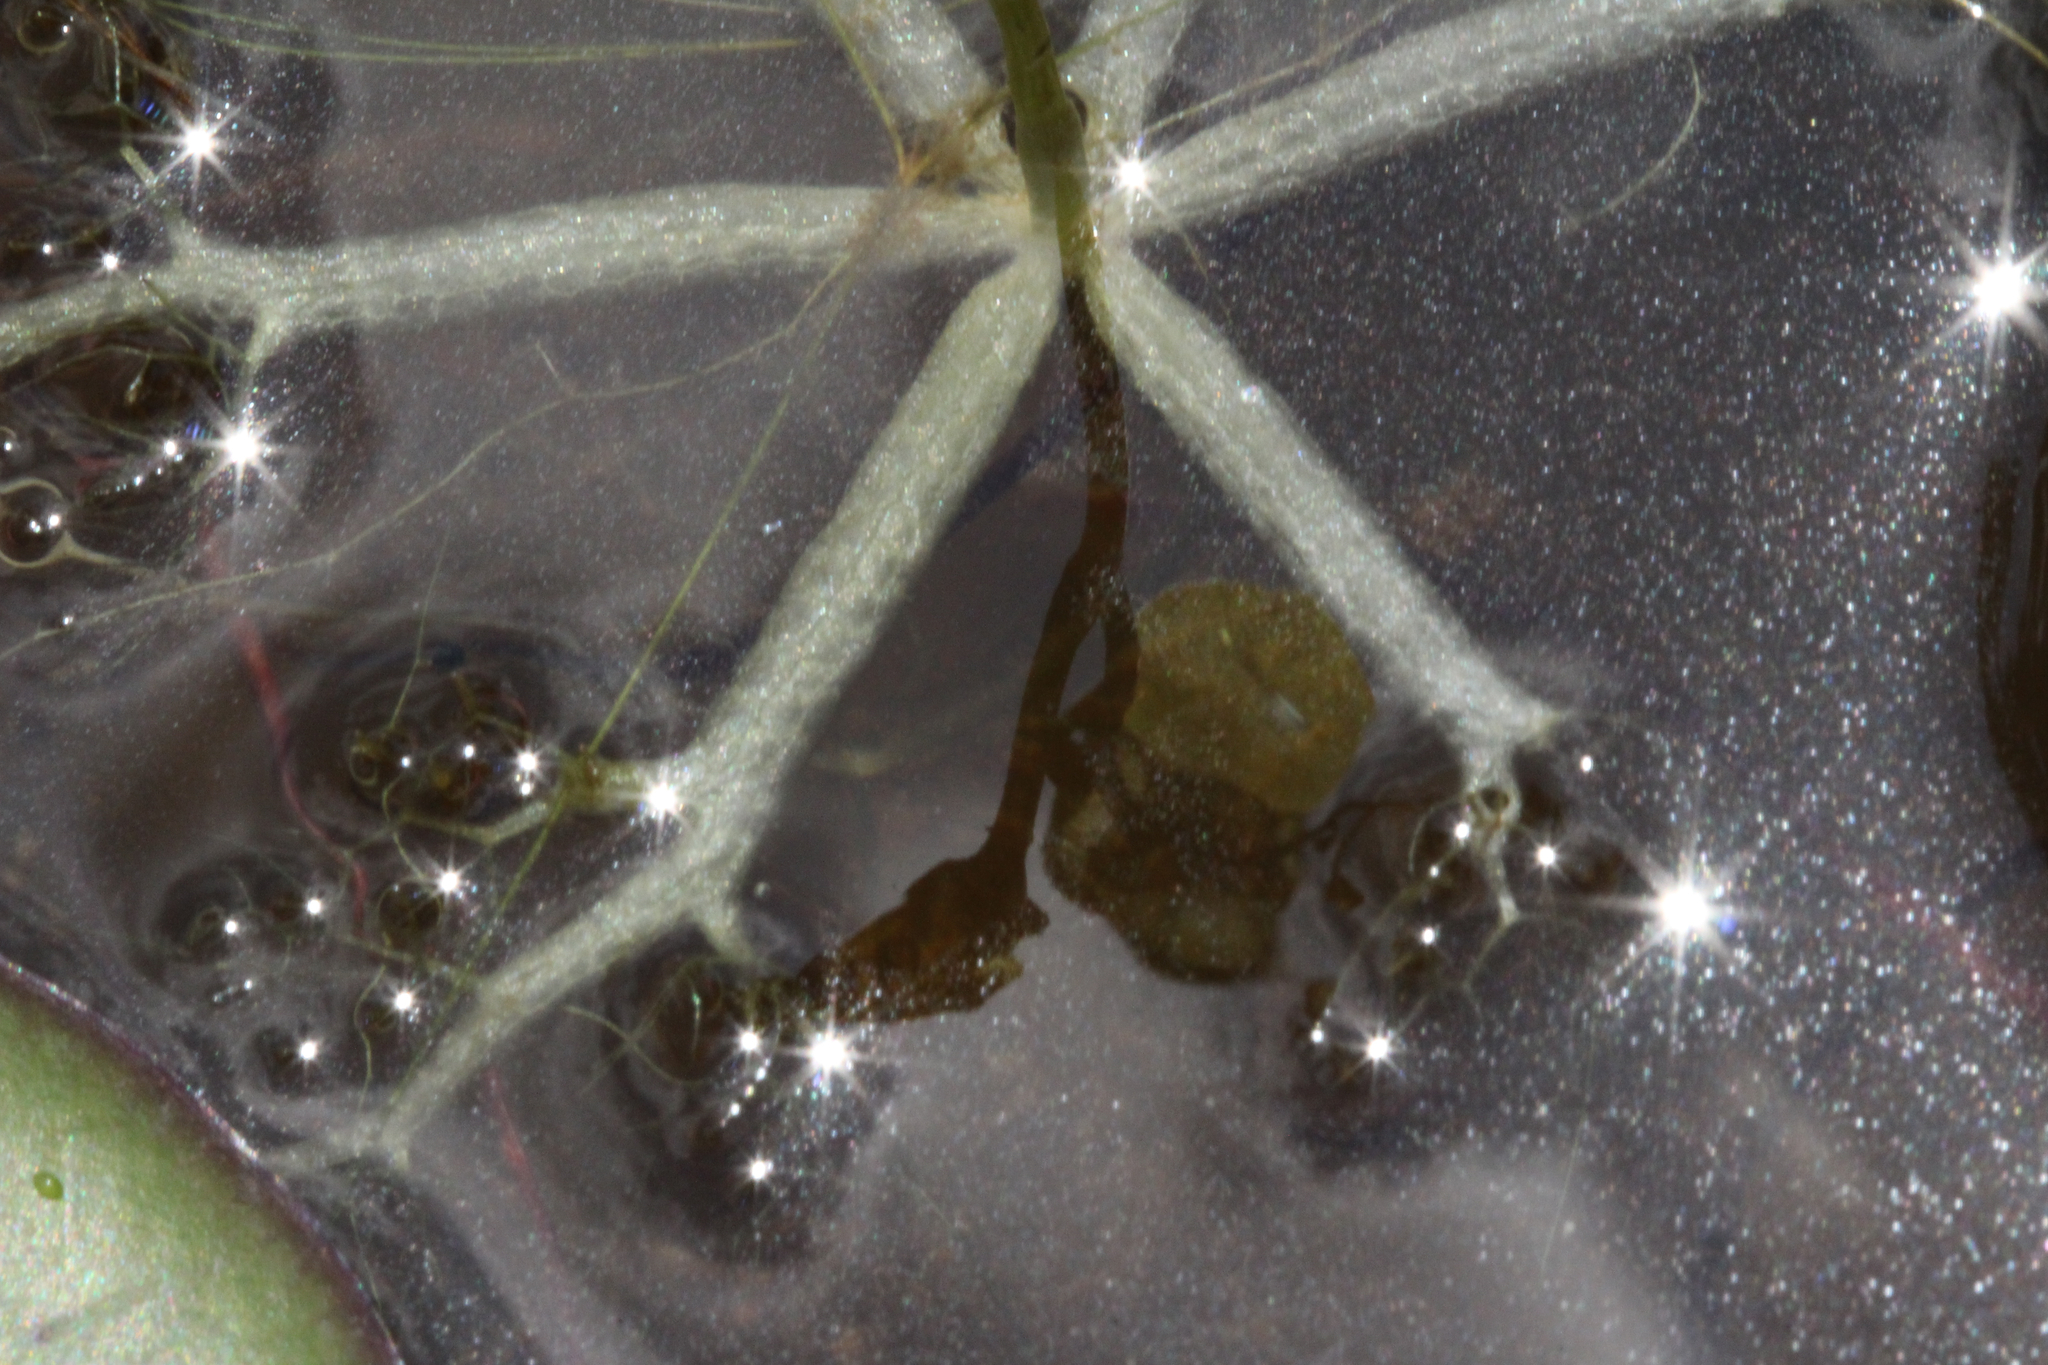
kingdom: Plantae
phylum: Tracheophyta
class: Magnoliopsida
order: Lamiales
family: Lentibulariaceae
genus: Utricularia
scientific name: Utricularia radiata
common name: Floating bladderwort
